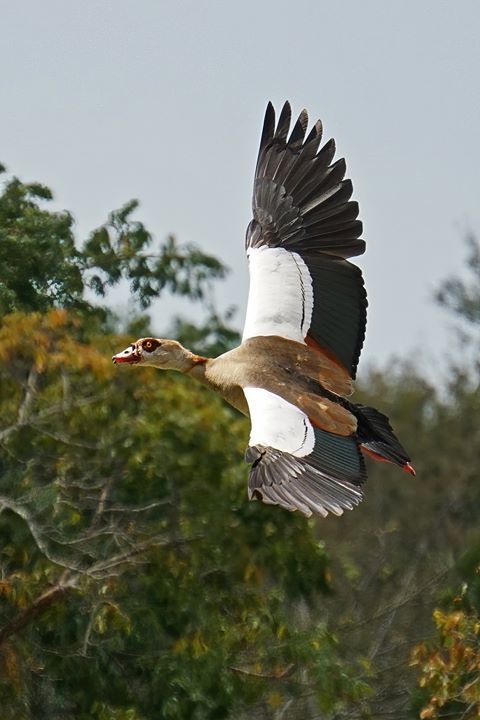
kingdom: Animalia
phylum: Chordata
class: Aves
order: Anseriformes
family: Anatidae
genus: Alopochen
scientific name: Alopochen aegyptiaca
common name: Egyptian goose
